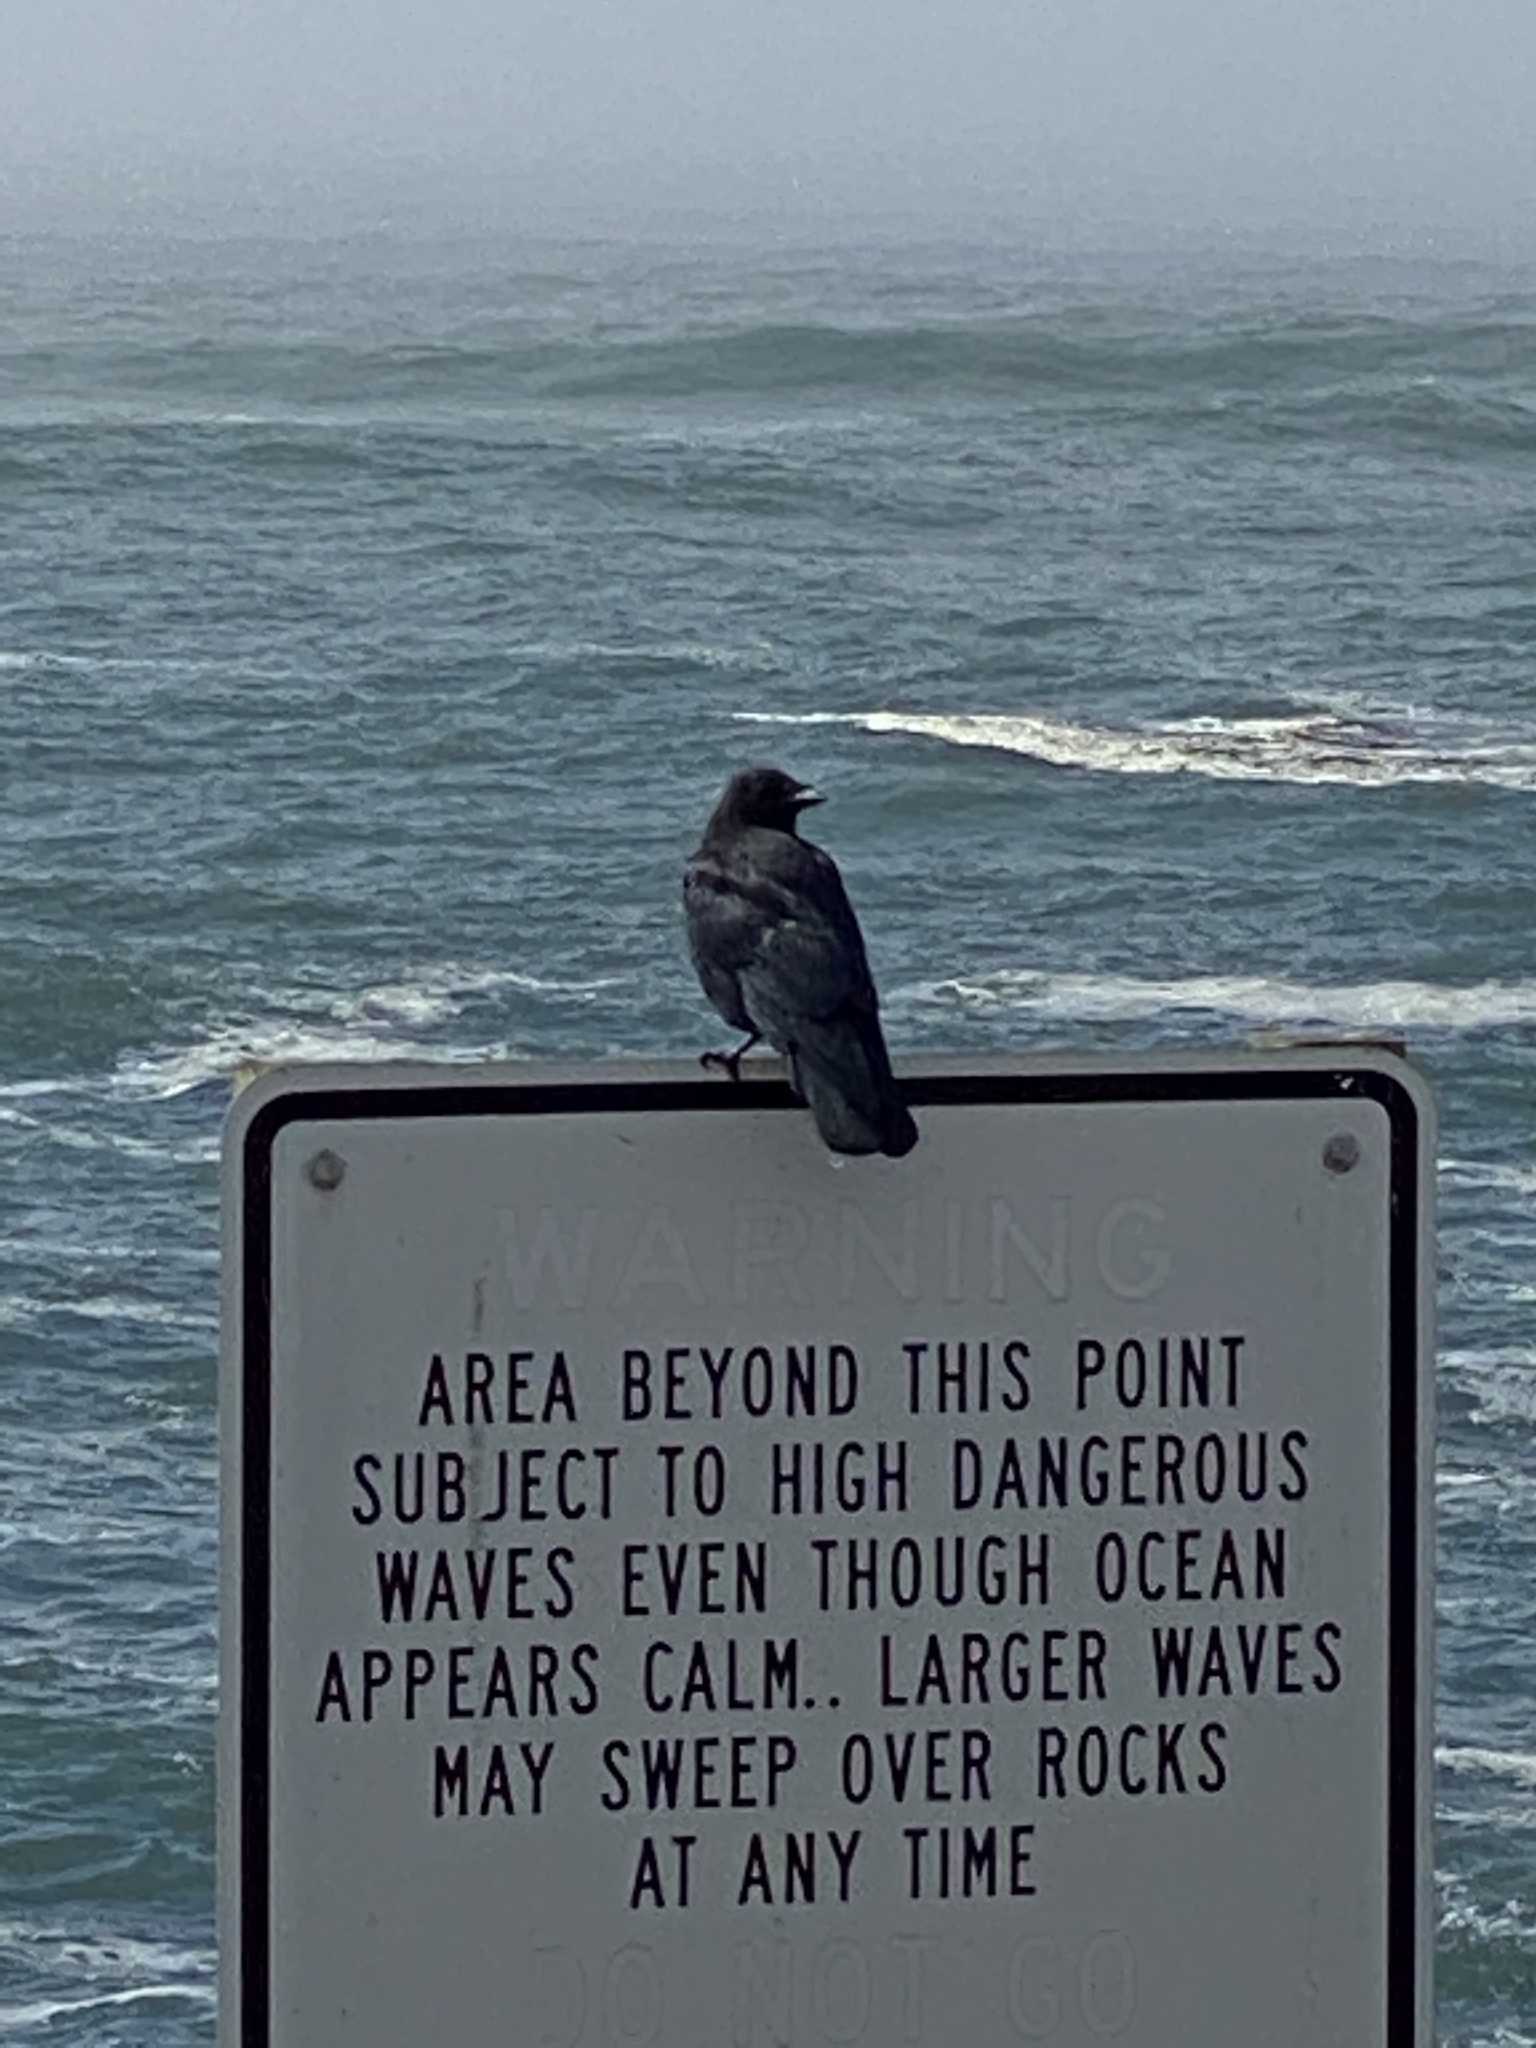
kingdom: Animalia
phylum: Chordata
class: Aves
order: Passeriformes
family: Corvidae
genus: Corvus
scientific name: Corvus brachyrhynchos
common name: American crow
